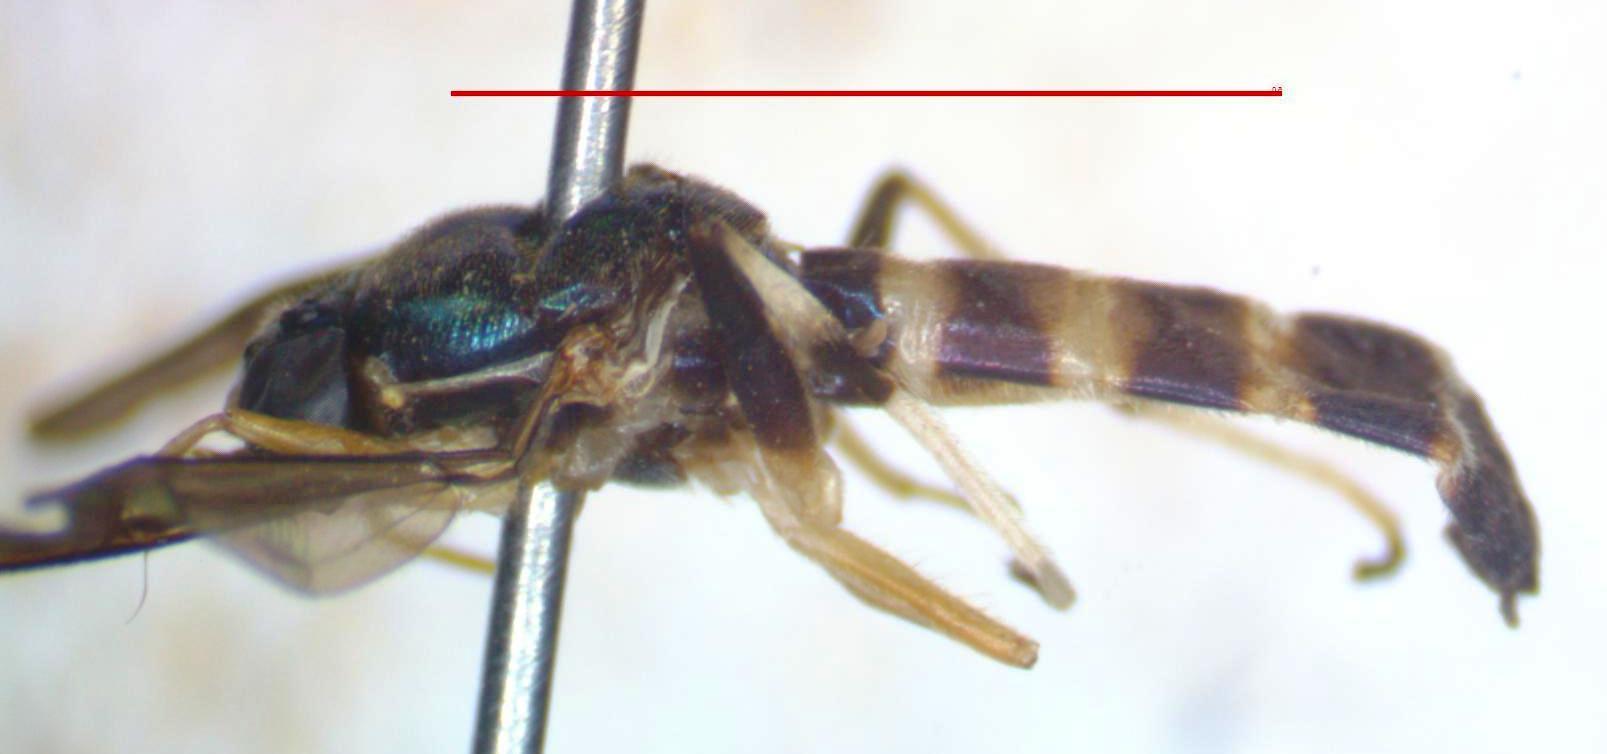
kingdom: Animalia
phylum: Arthropoda
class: Insecta
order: Diptera
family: Stratiomyidae
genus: Merosargus
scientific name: Merosargus cingulatus
